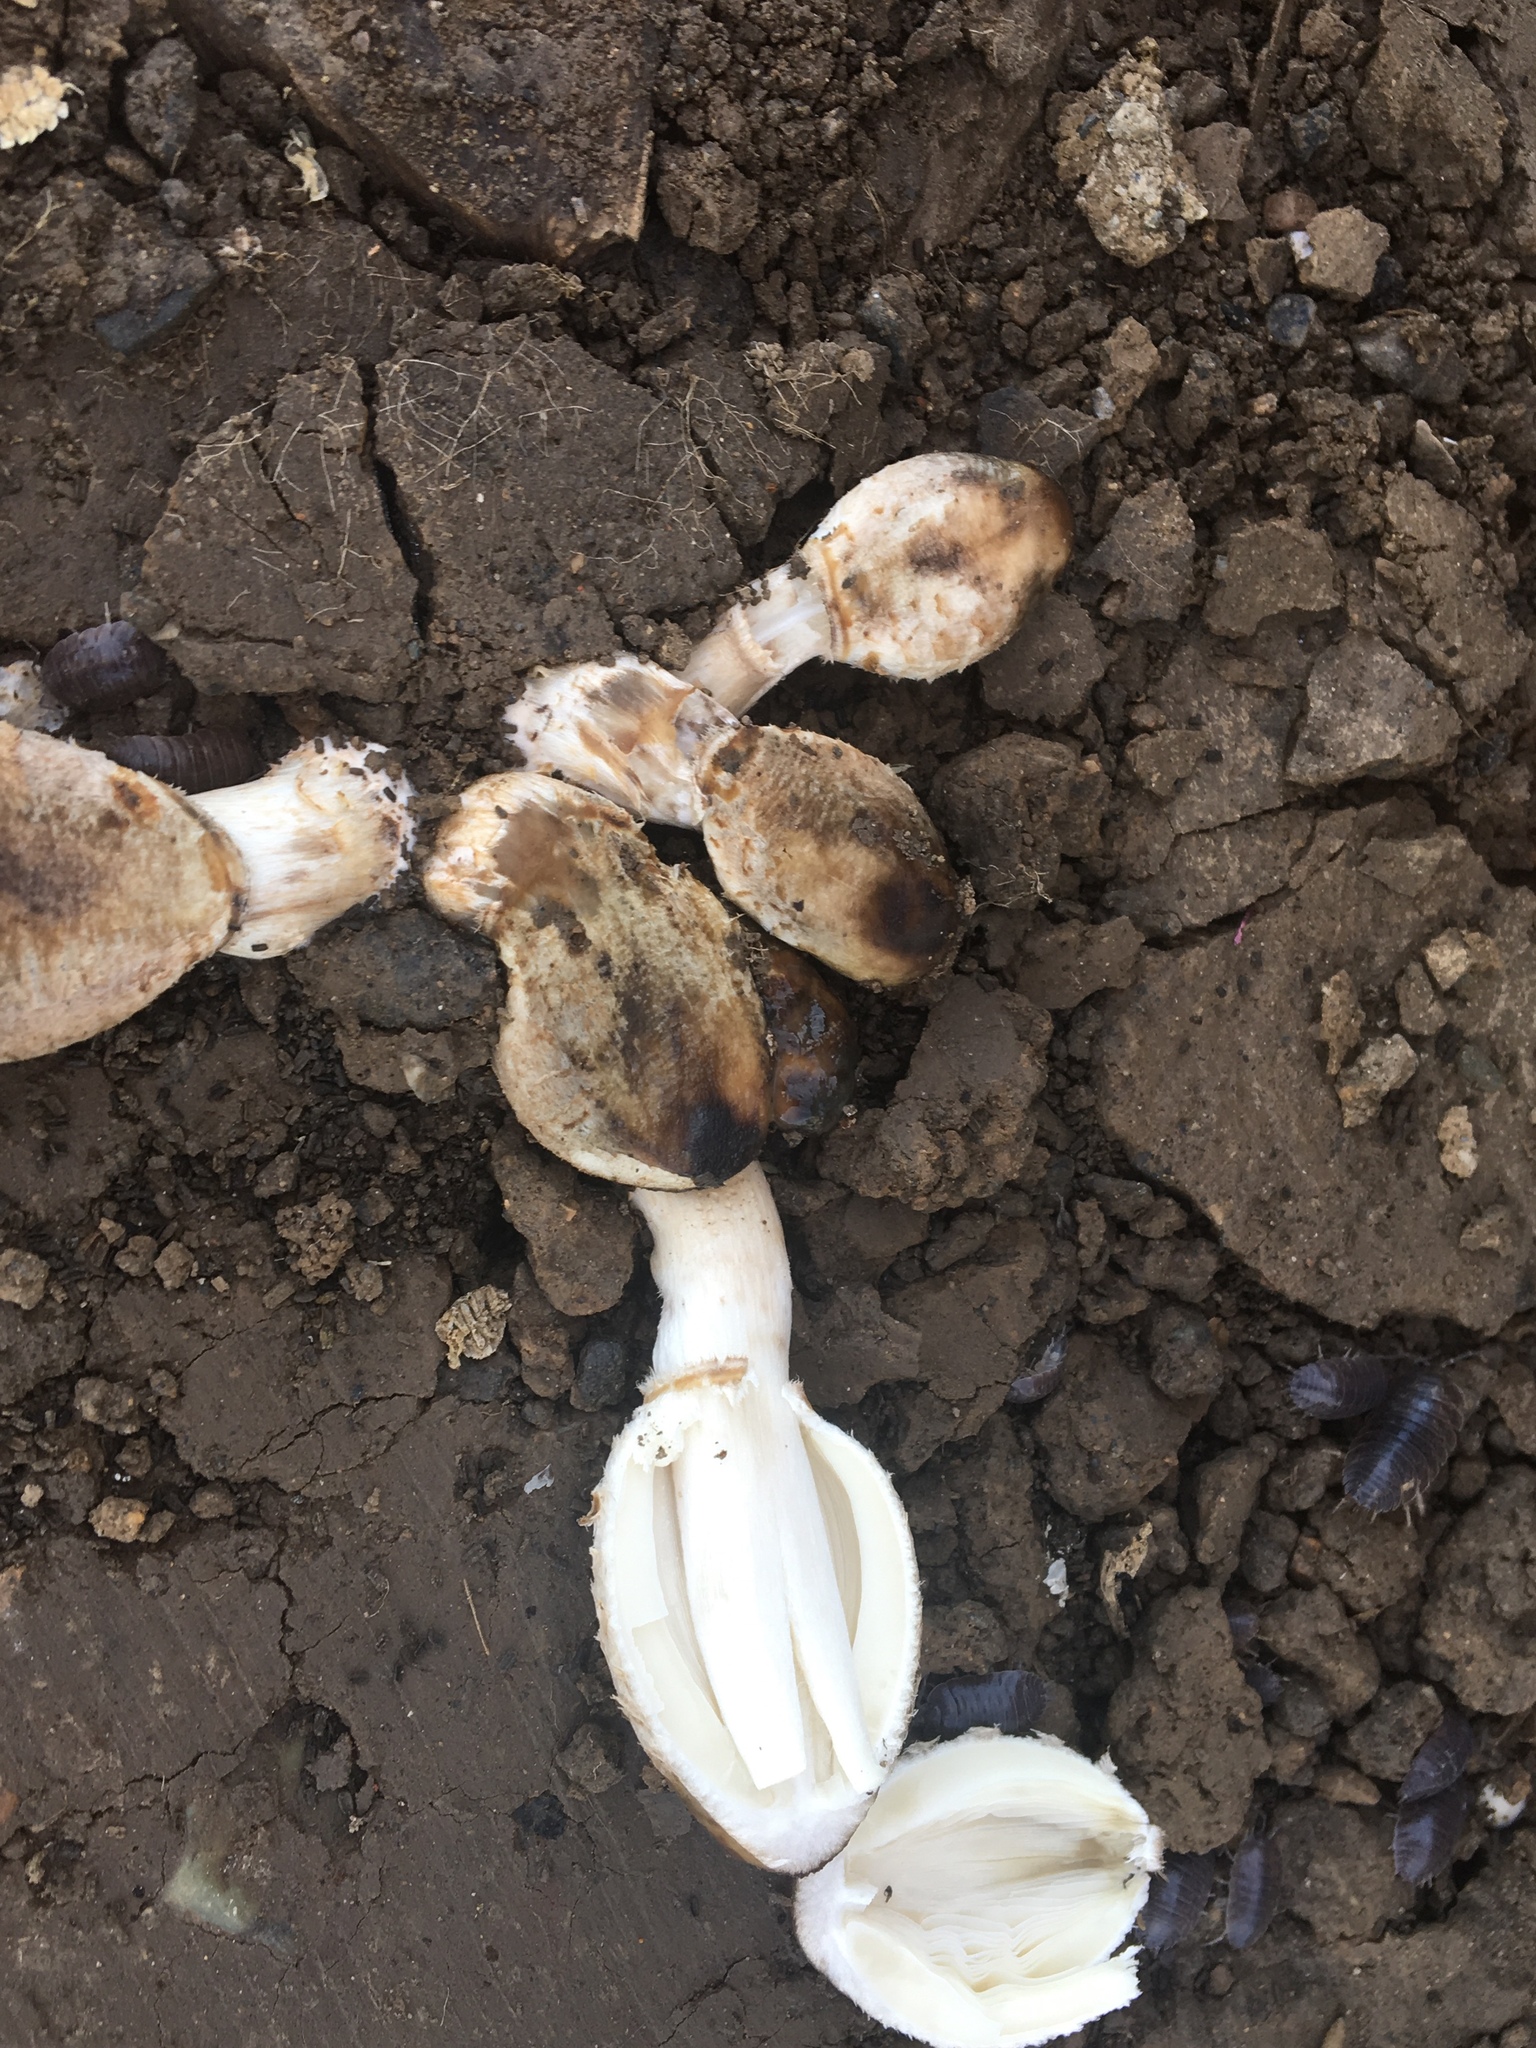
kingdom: Fungi
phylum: Basidiomycota
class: Agaricomycetes
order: Agaricales
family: Agaricaceae
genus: Coprinus
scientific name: Coprinus comatus
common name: Lawyer's wig
